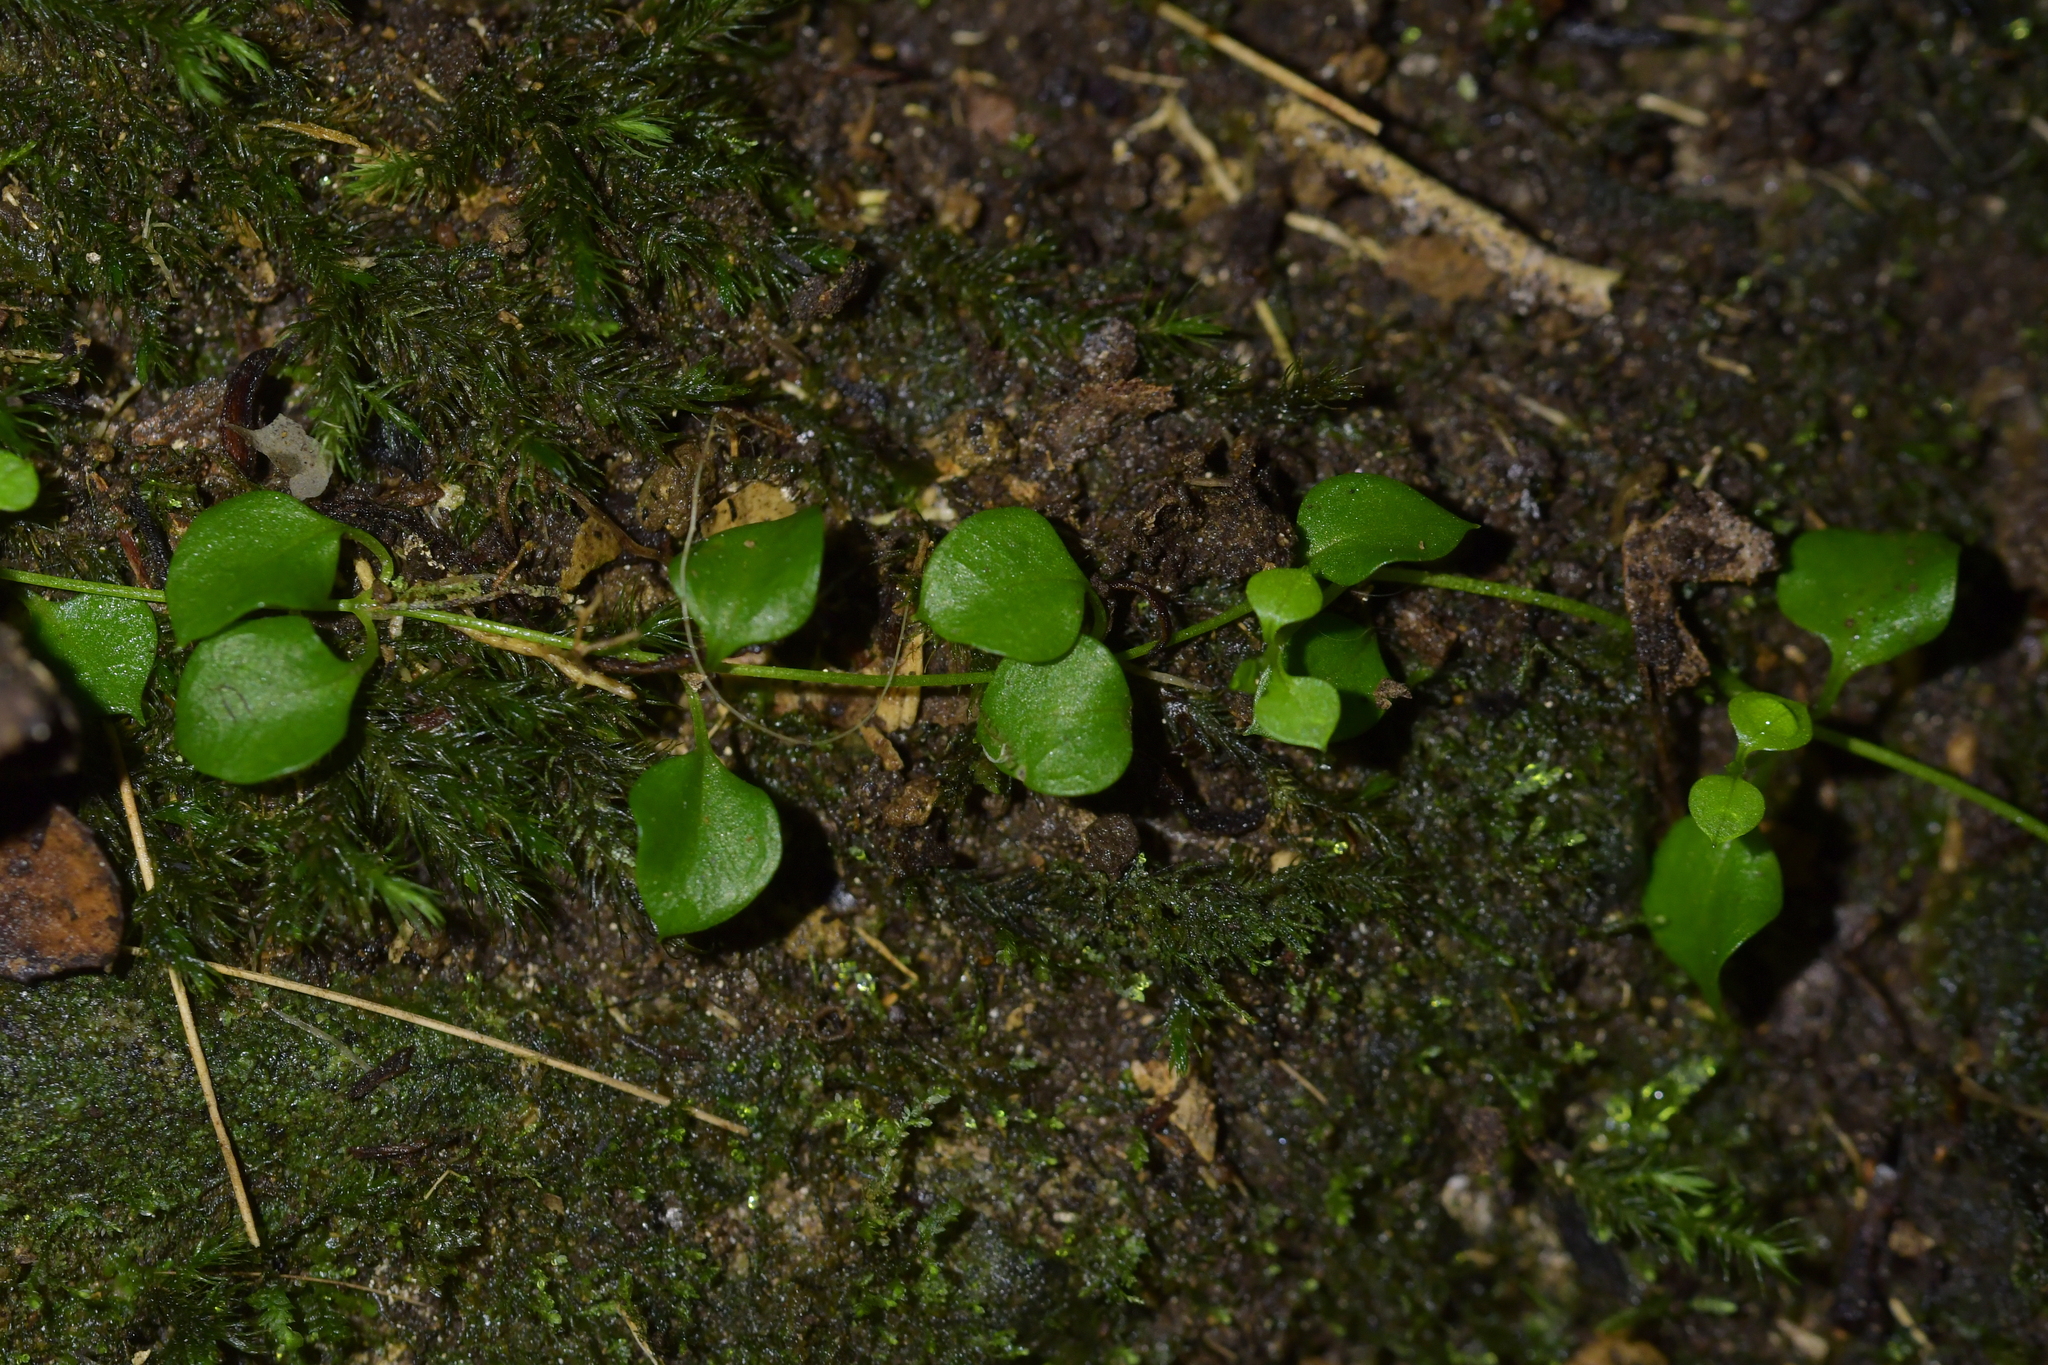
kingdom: Plantae
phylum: Tracheophyta
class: Magnoliopsida
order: Caryophyllales
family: Caryophyllaceae
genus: Stellaria
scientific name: Stellaria parviflora
